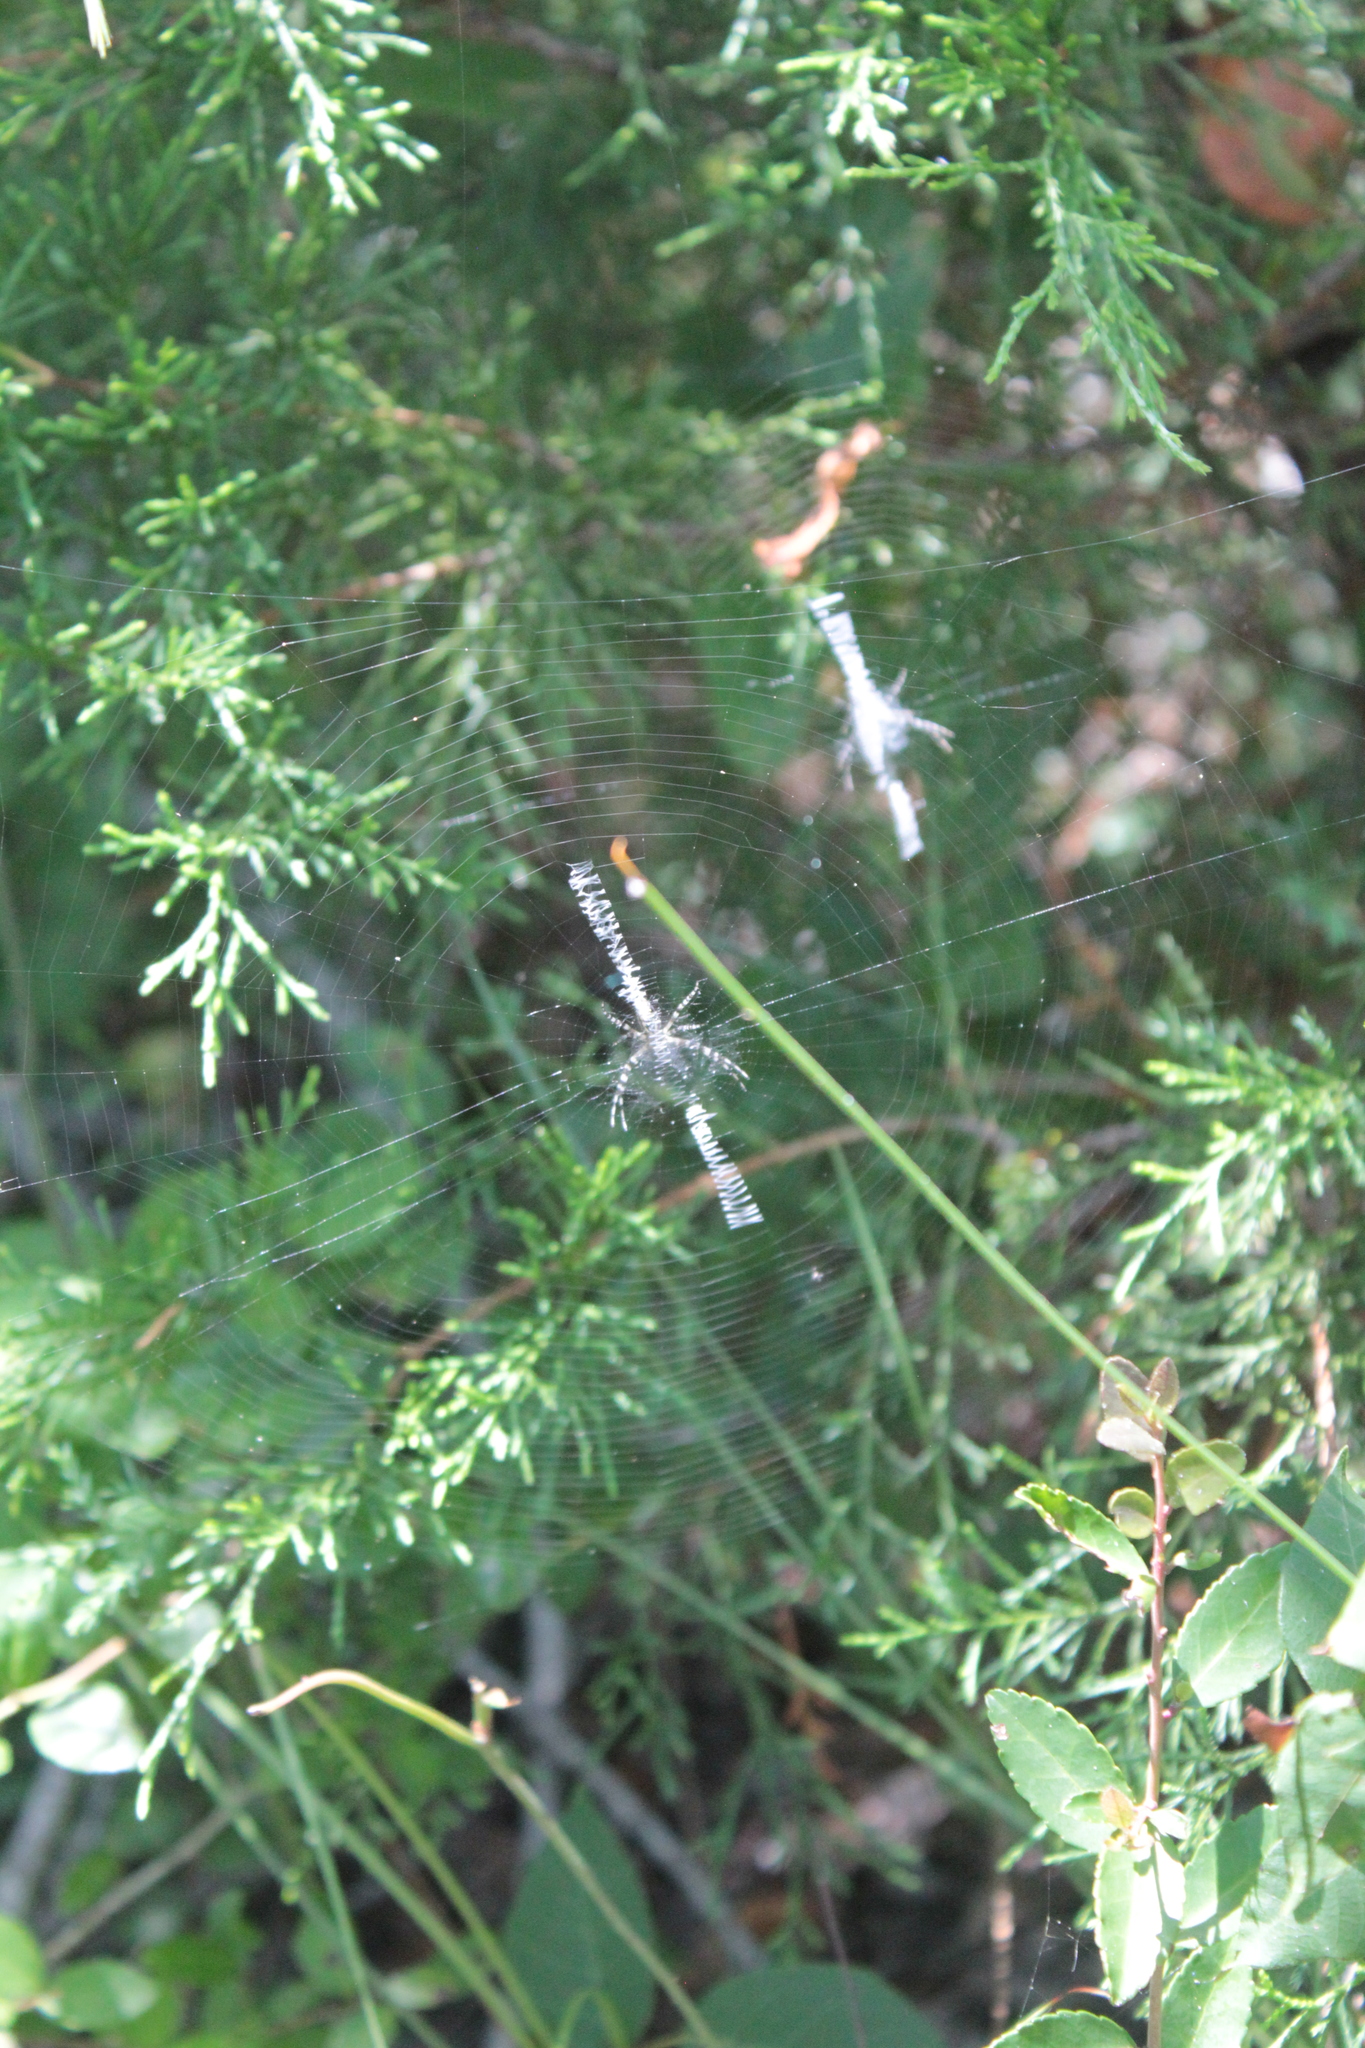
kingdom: Animalia
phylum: Arthropoda
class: Arachnida
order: Araneae
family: Araneidae
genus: Argiope
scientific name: Argiope aurantia
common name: Orb weavers
